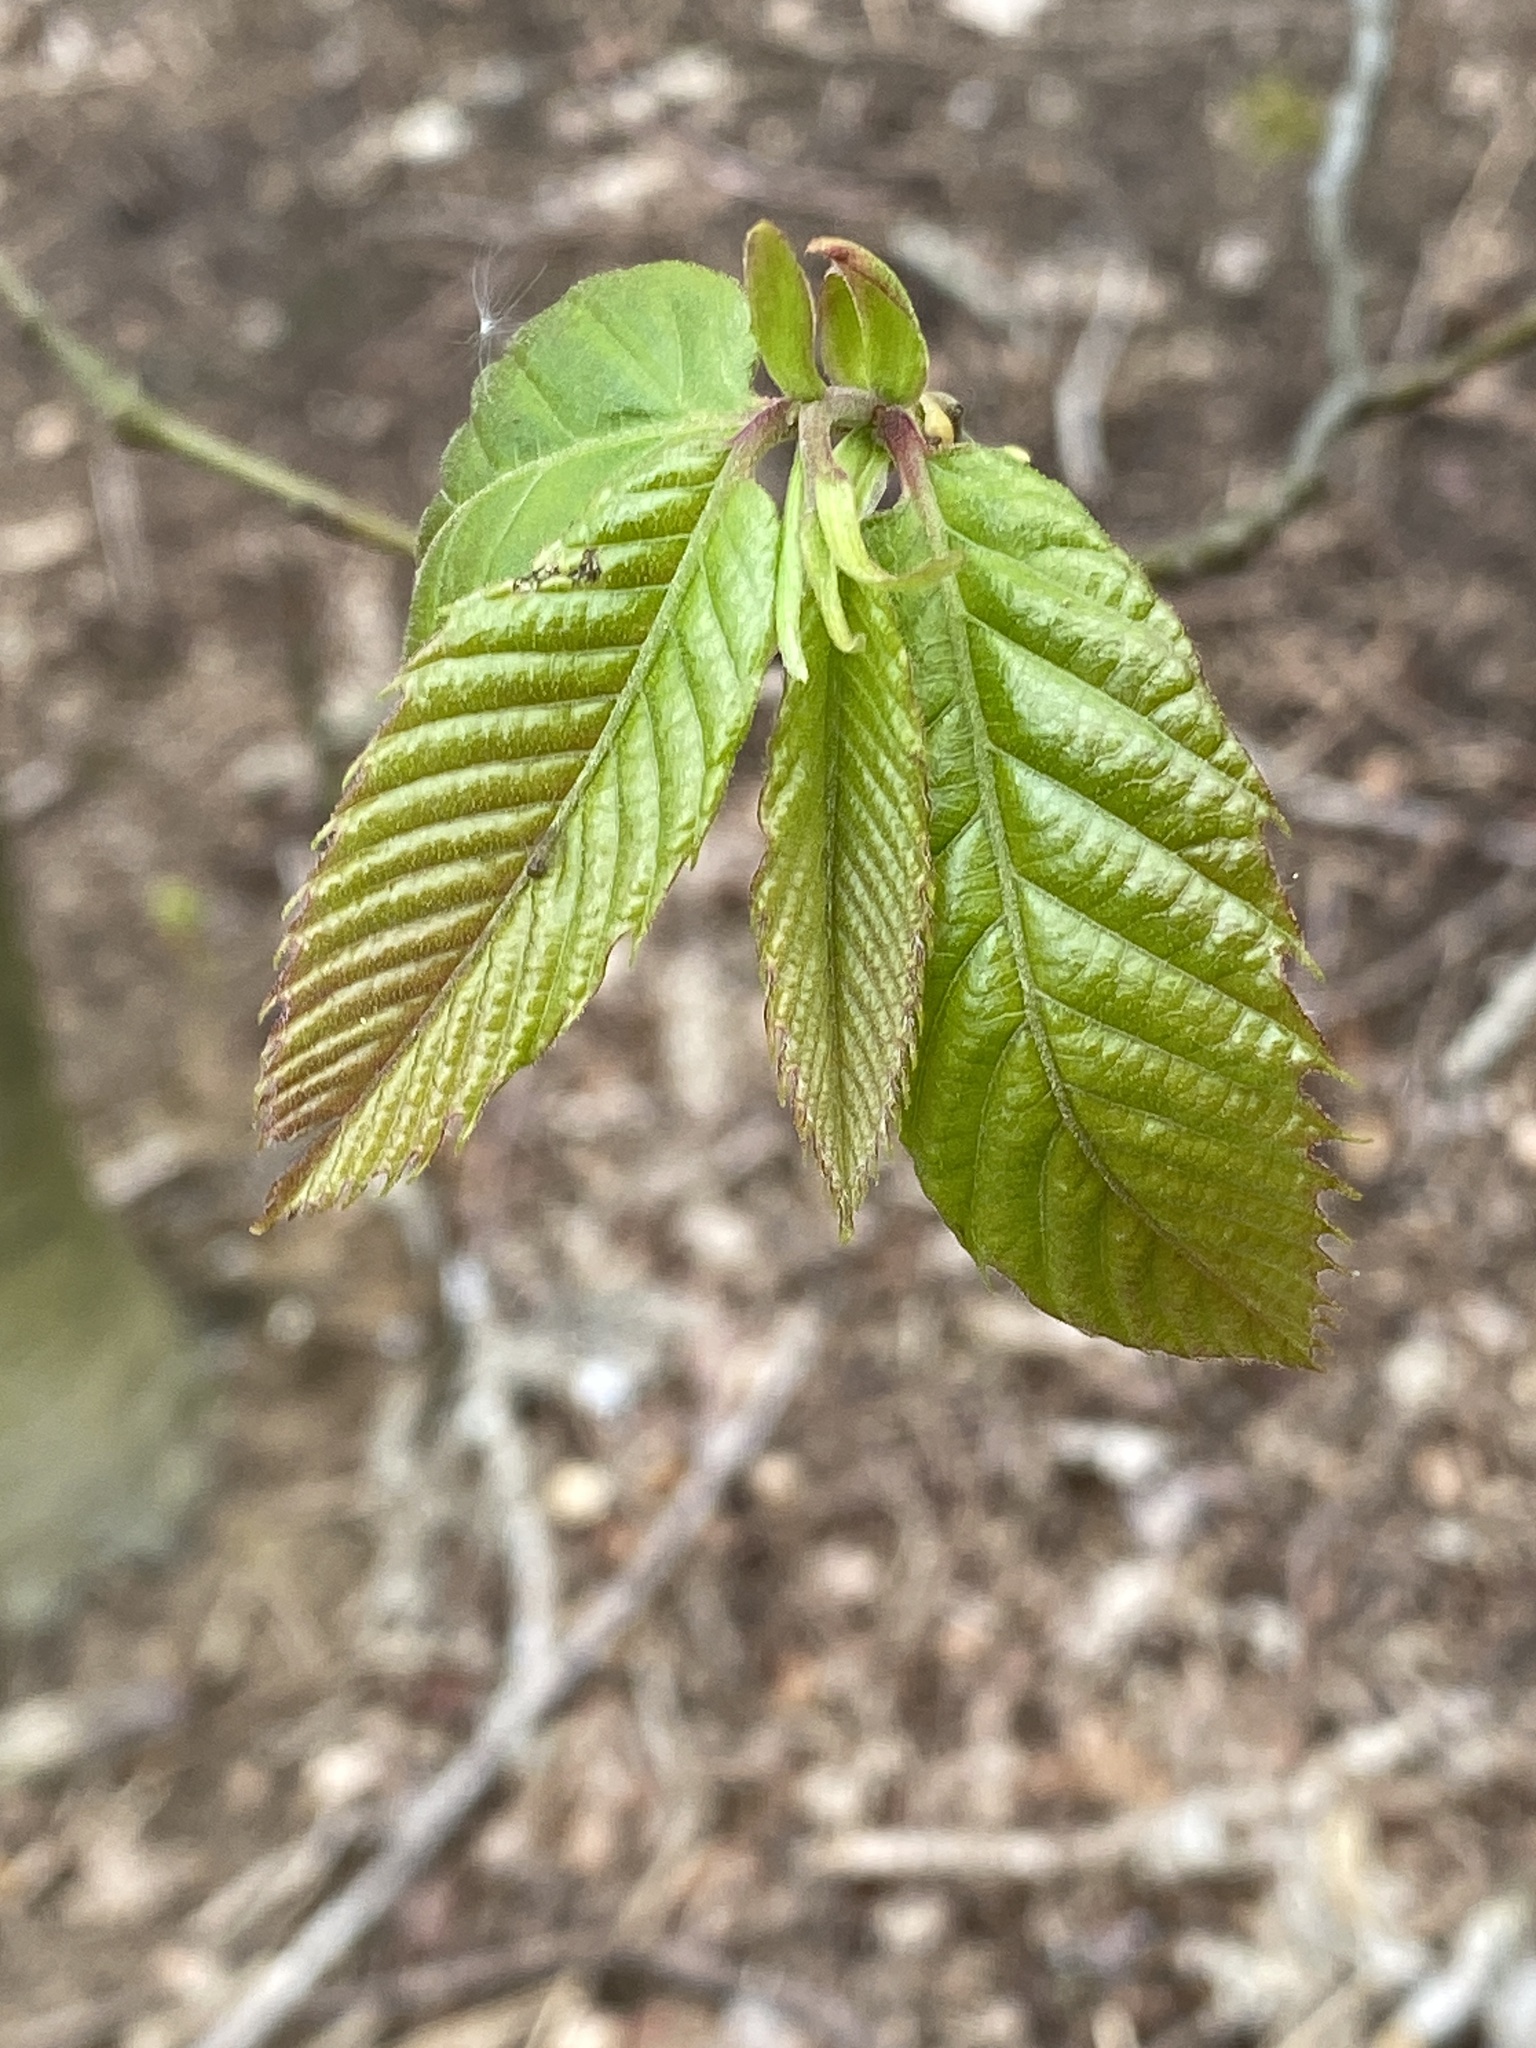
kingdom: Plantae
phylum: Tracheophyta
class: Magnoliopsida
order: Fagales
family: Betulaceae
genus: Carpinus
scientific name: Carpinus betulus
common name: Hornbeam
